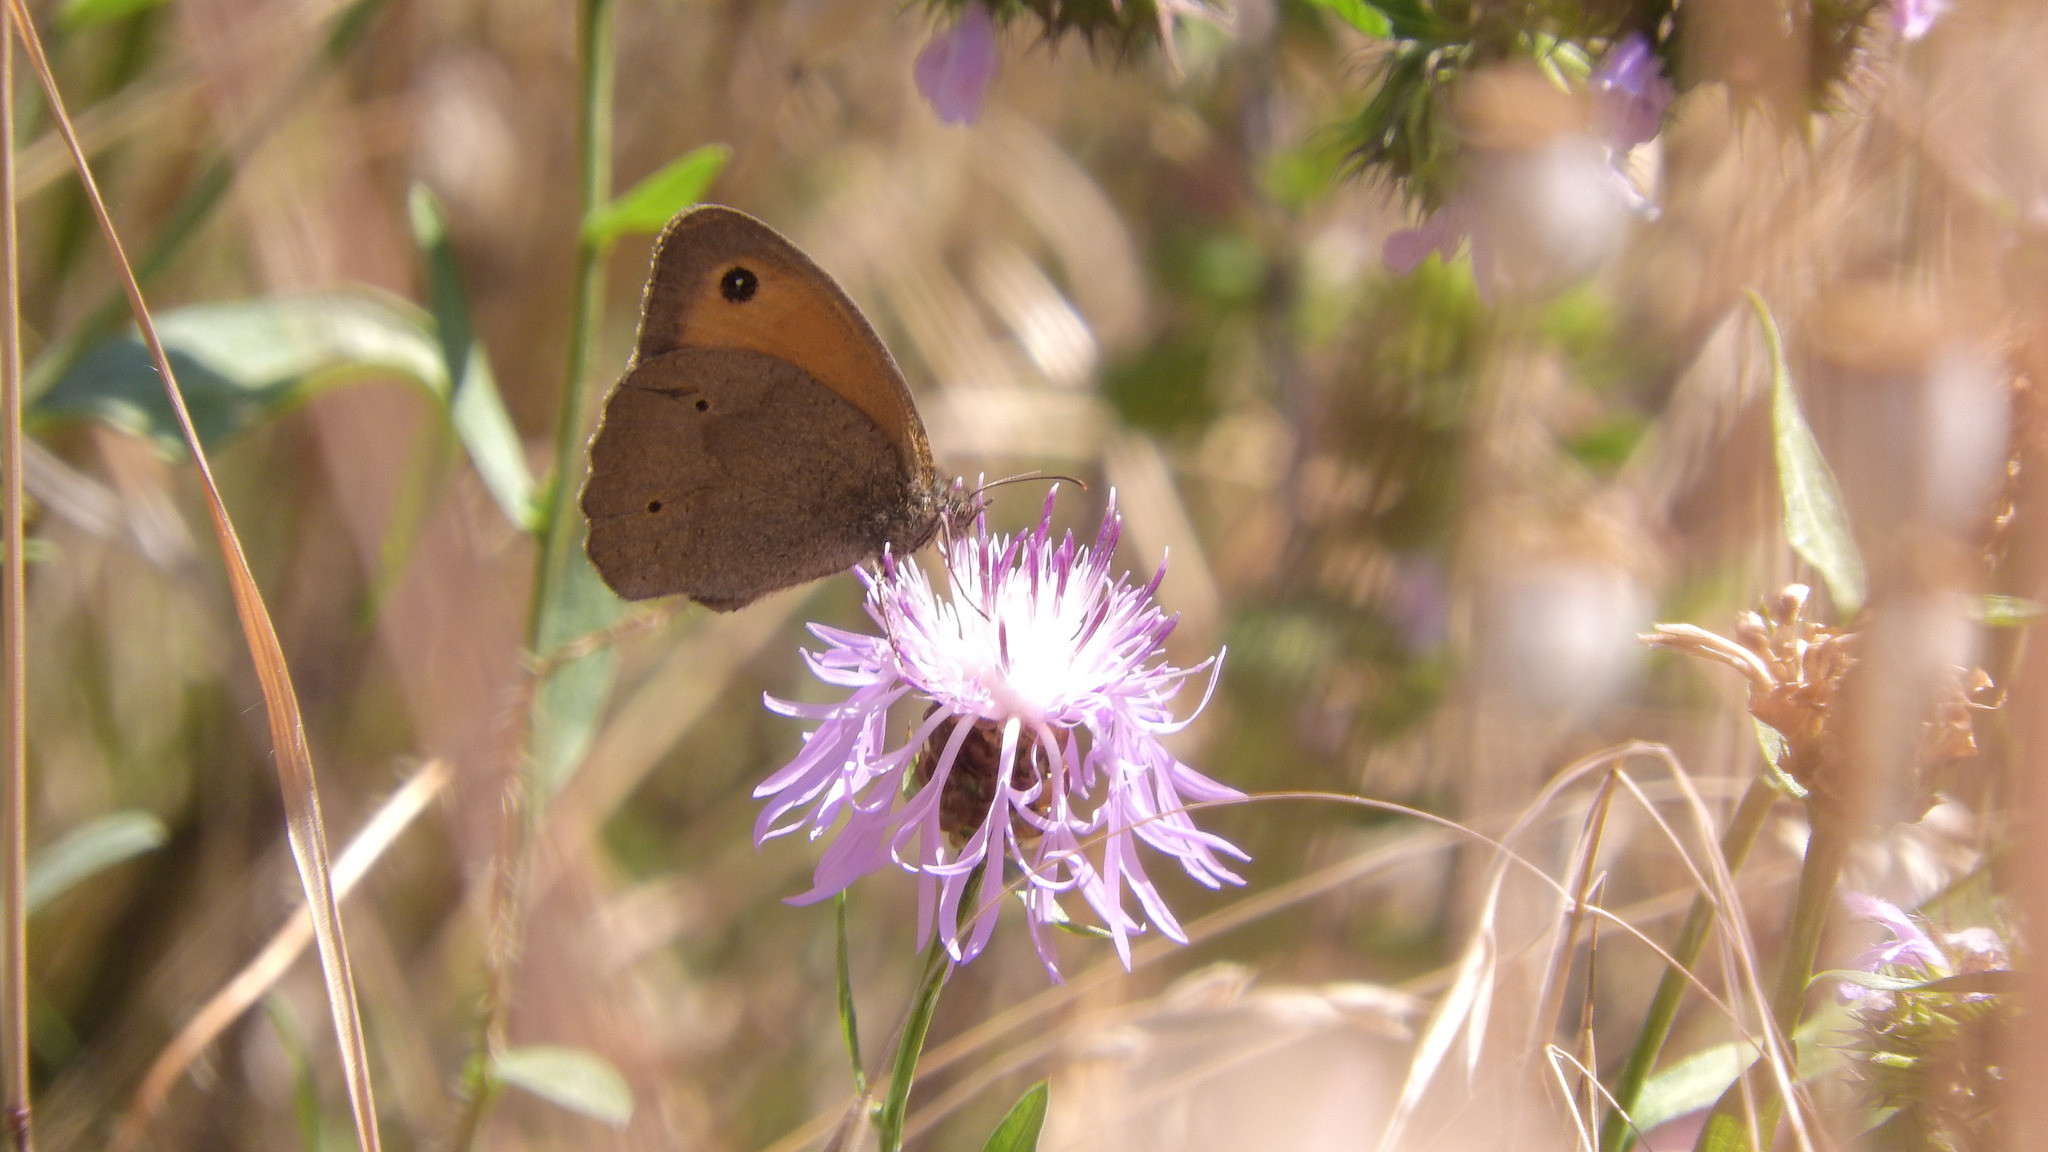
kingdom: Animalia
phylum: Arthropoda
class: Insecta
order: Lepidoptera
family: Nymphalidae
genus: Maniola
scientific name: Maniola jurtina
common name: Meadow brown
